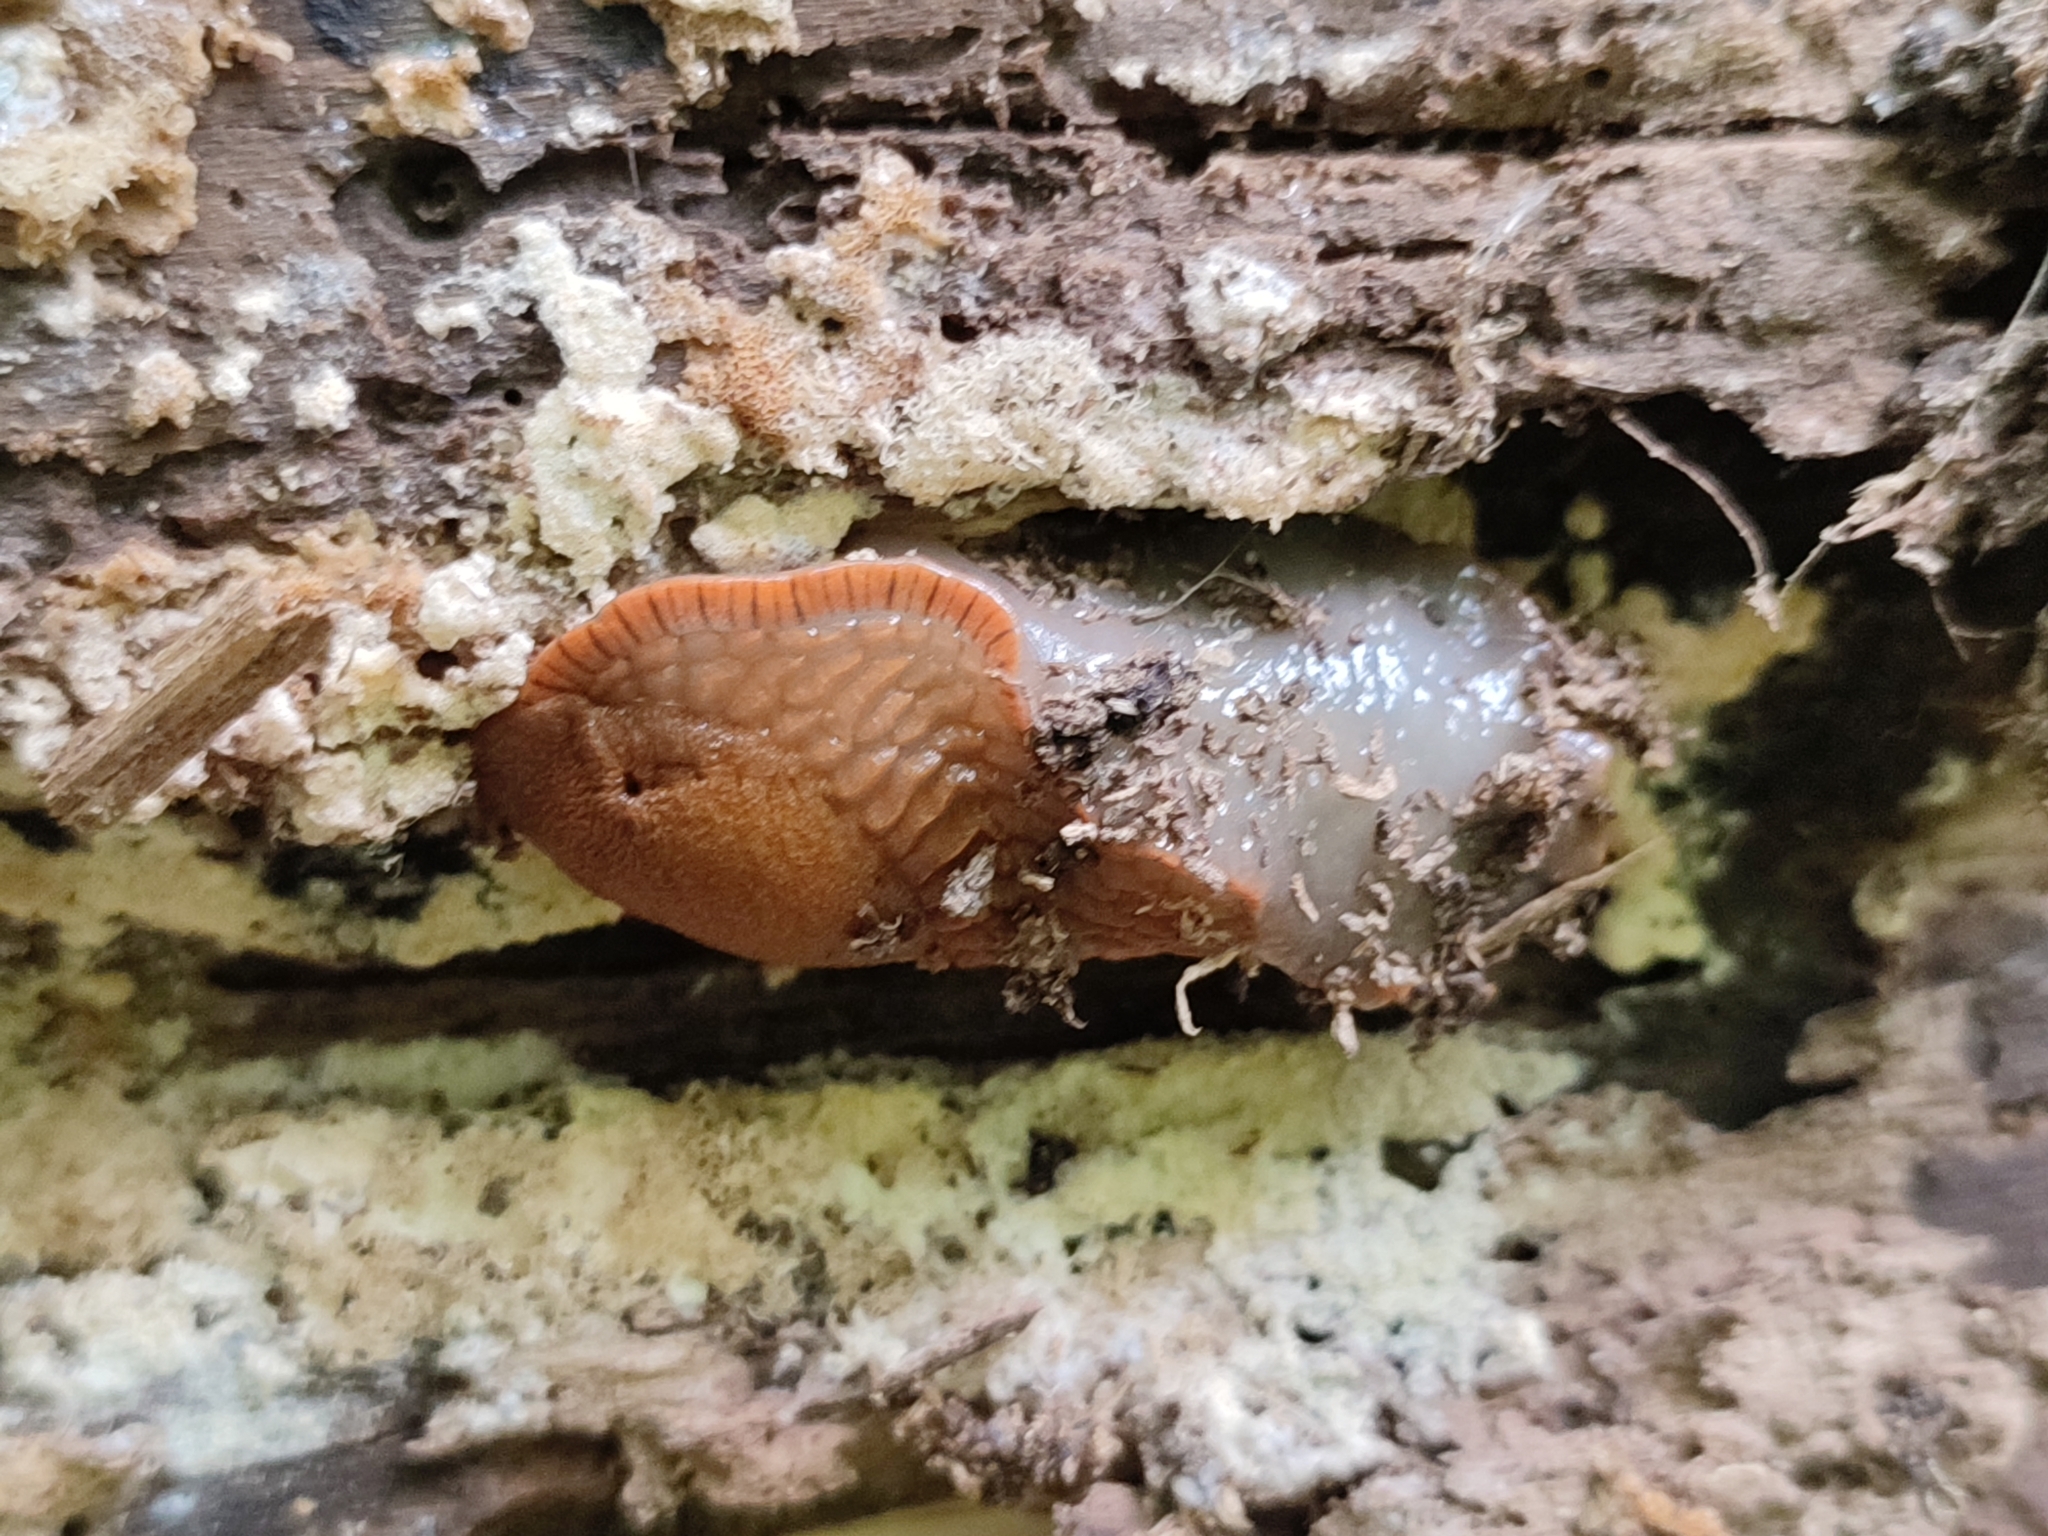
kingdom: Animalia
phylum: Mollusca
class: Gastropoda
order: Stylommatophora
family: Arionidae
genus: Arion
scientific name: Arion vulgaris
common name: Lusitanian slug
